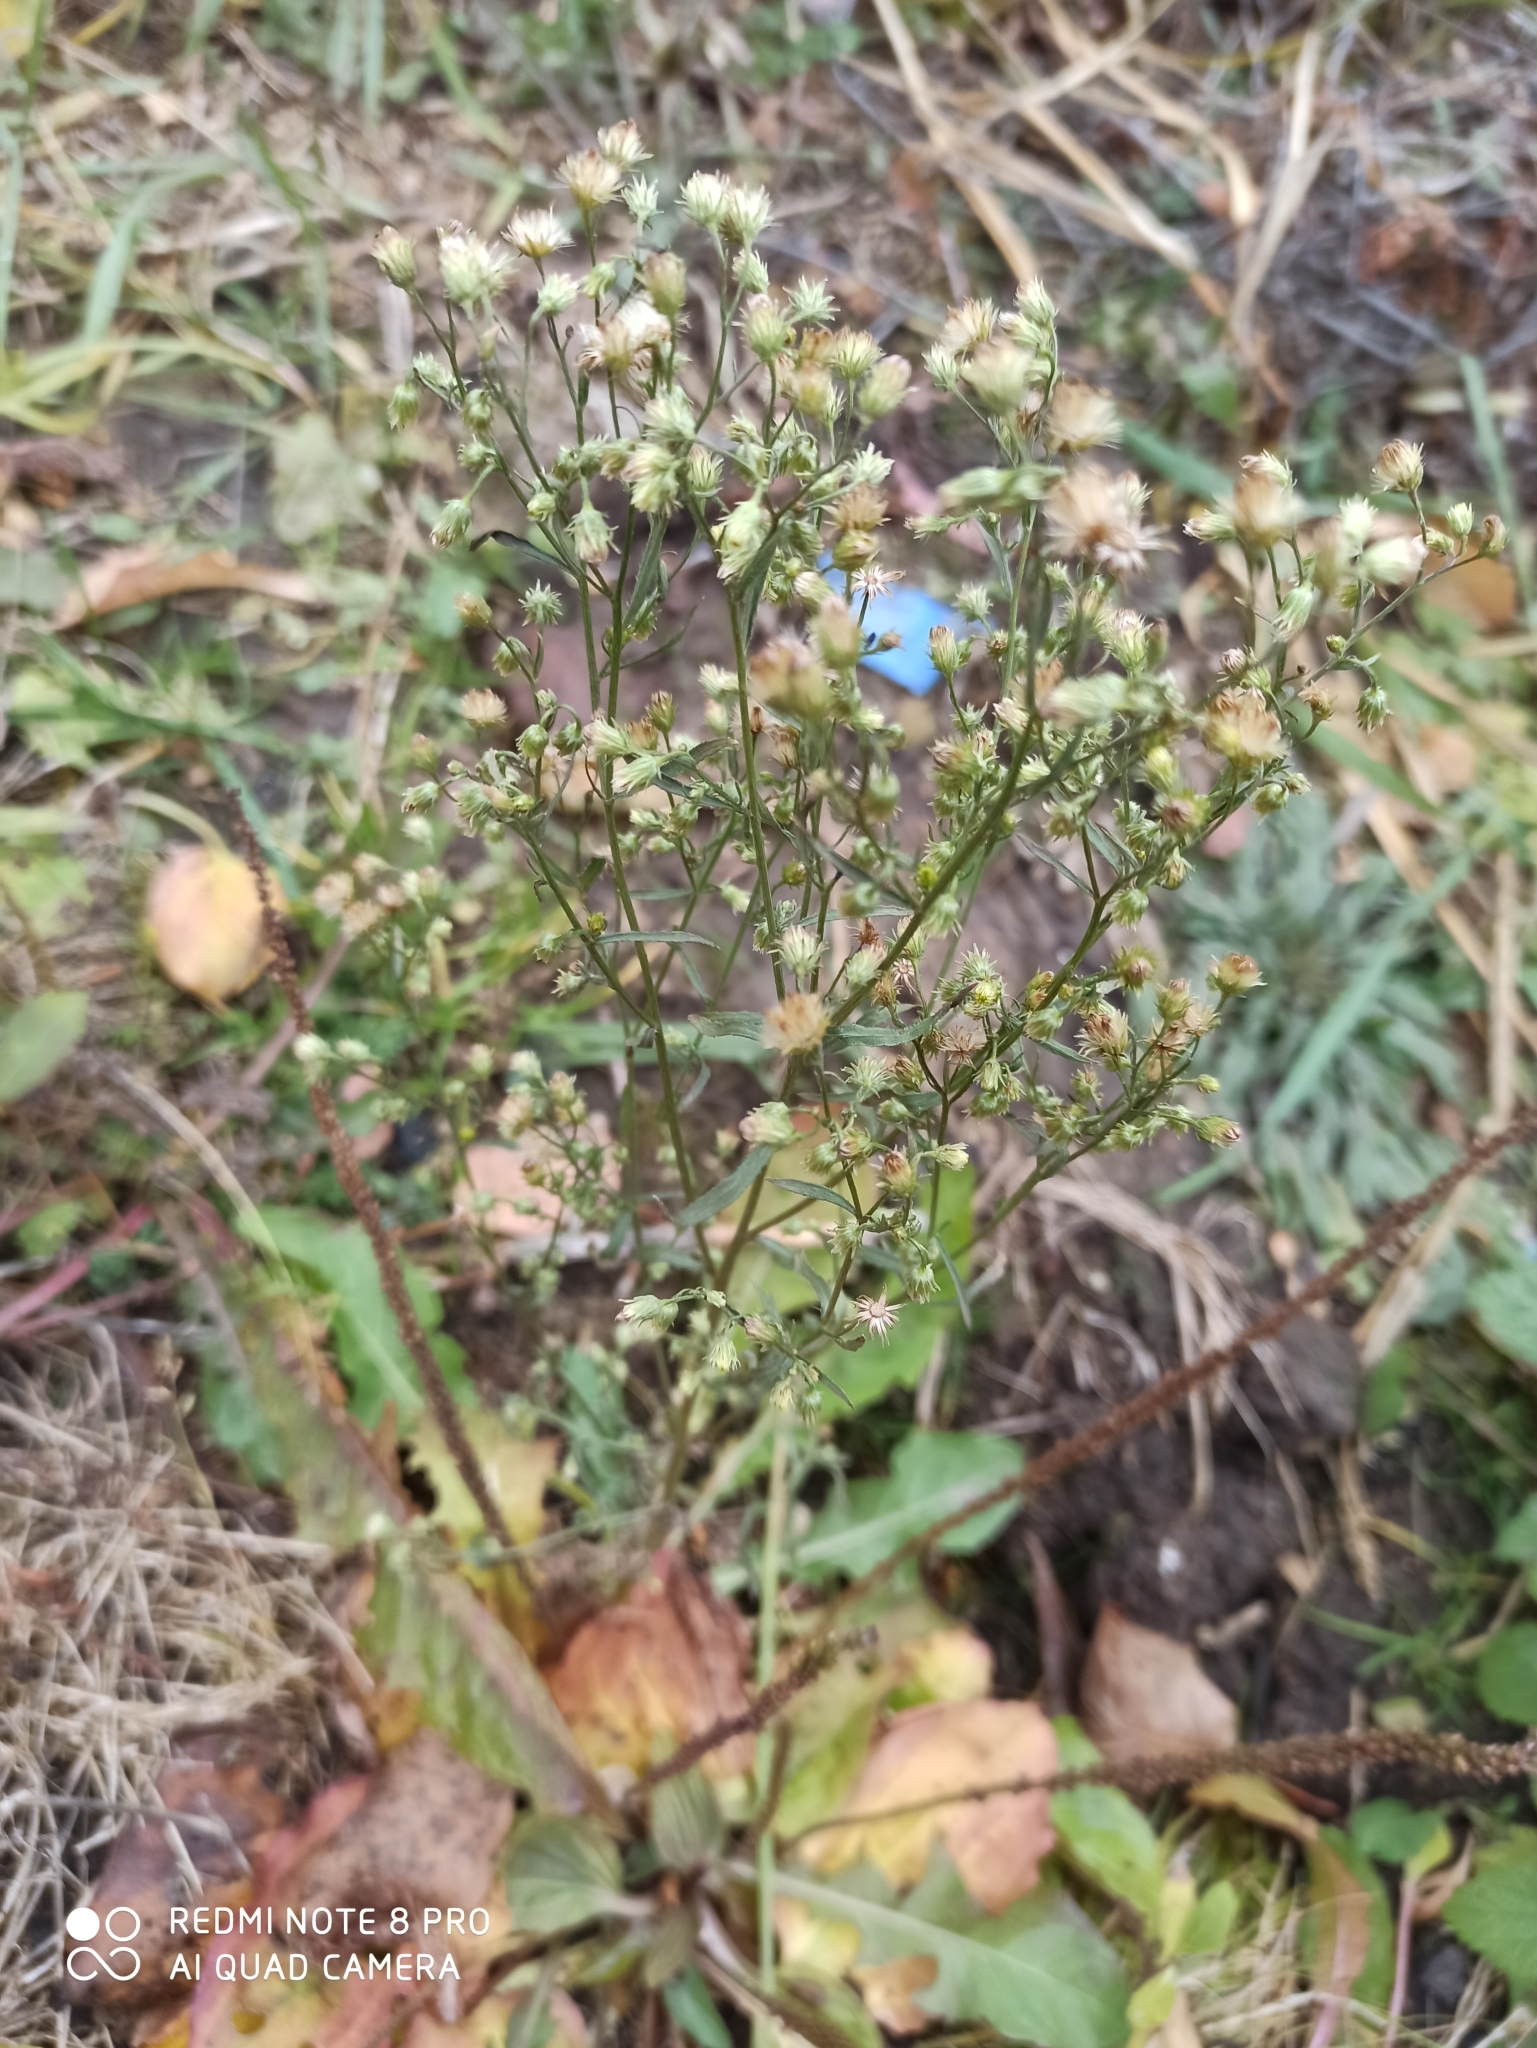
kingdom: Plantae
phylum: Tracheophyta
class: Magnoliopsida
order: Asterales
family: Asteraceae
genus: Erigeron
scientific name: Erigeron canadensis
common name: Canadian fleabane
